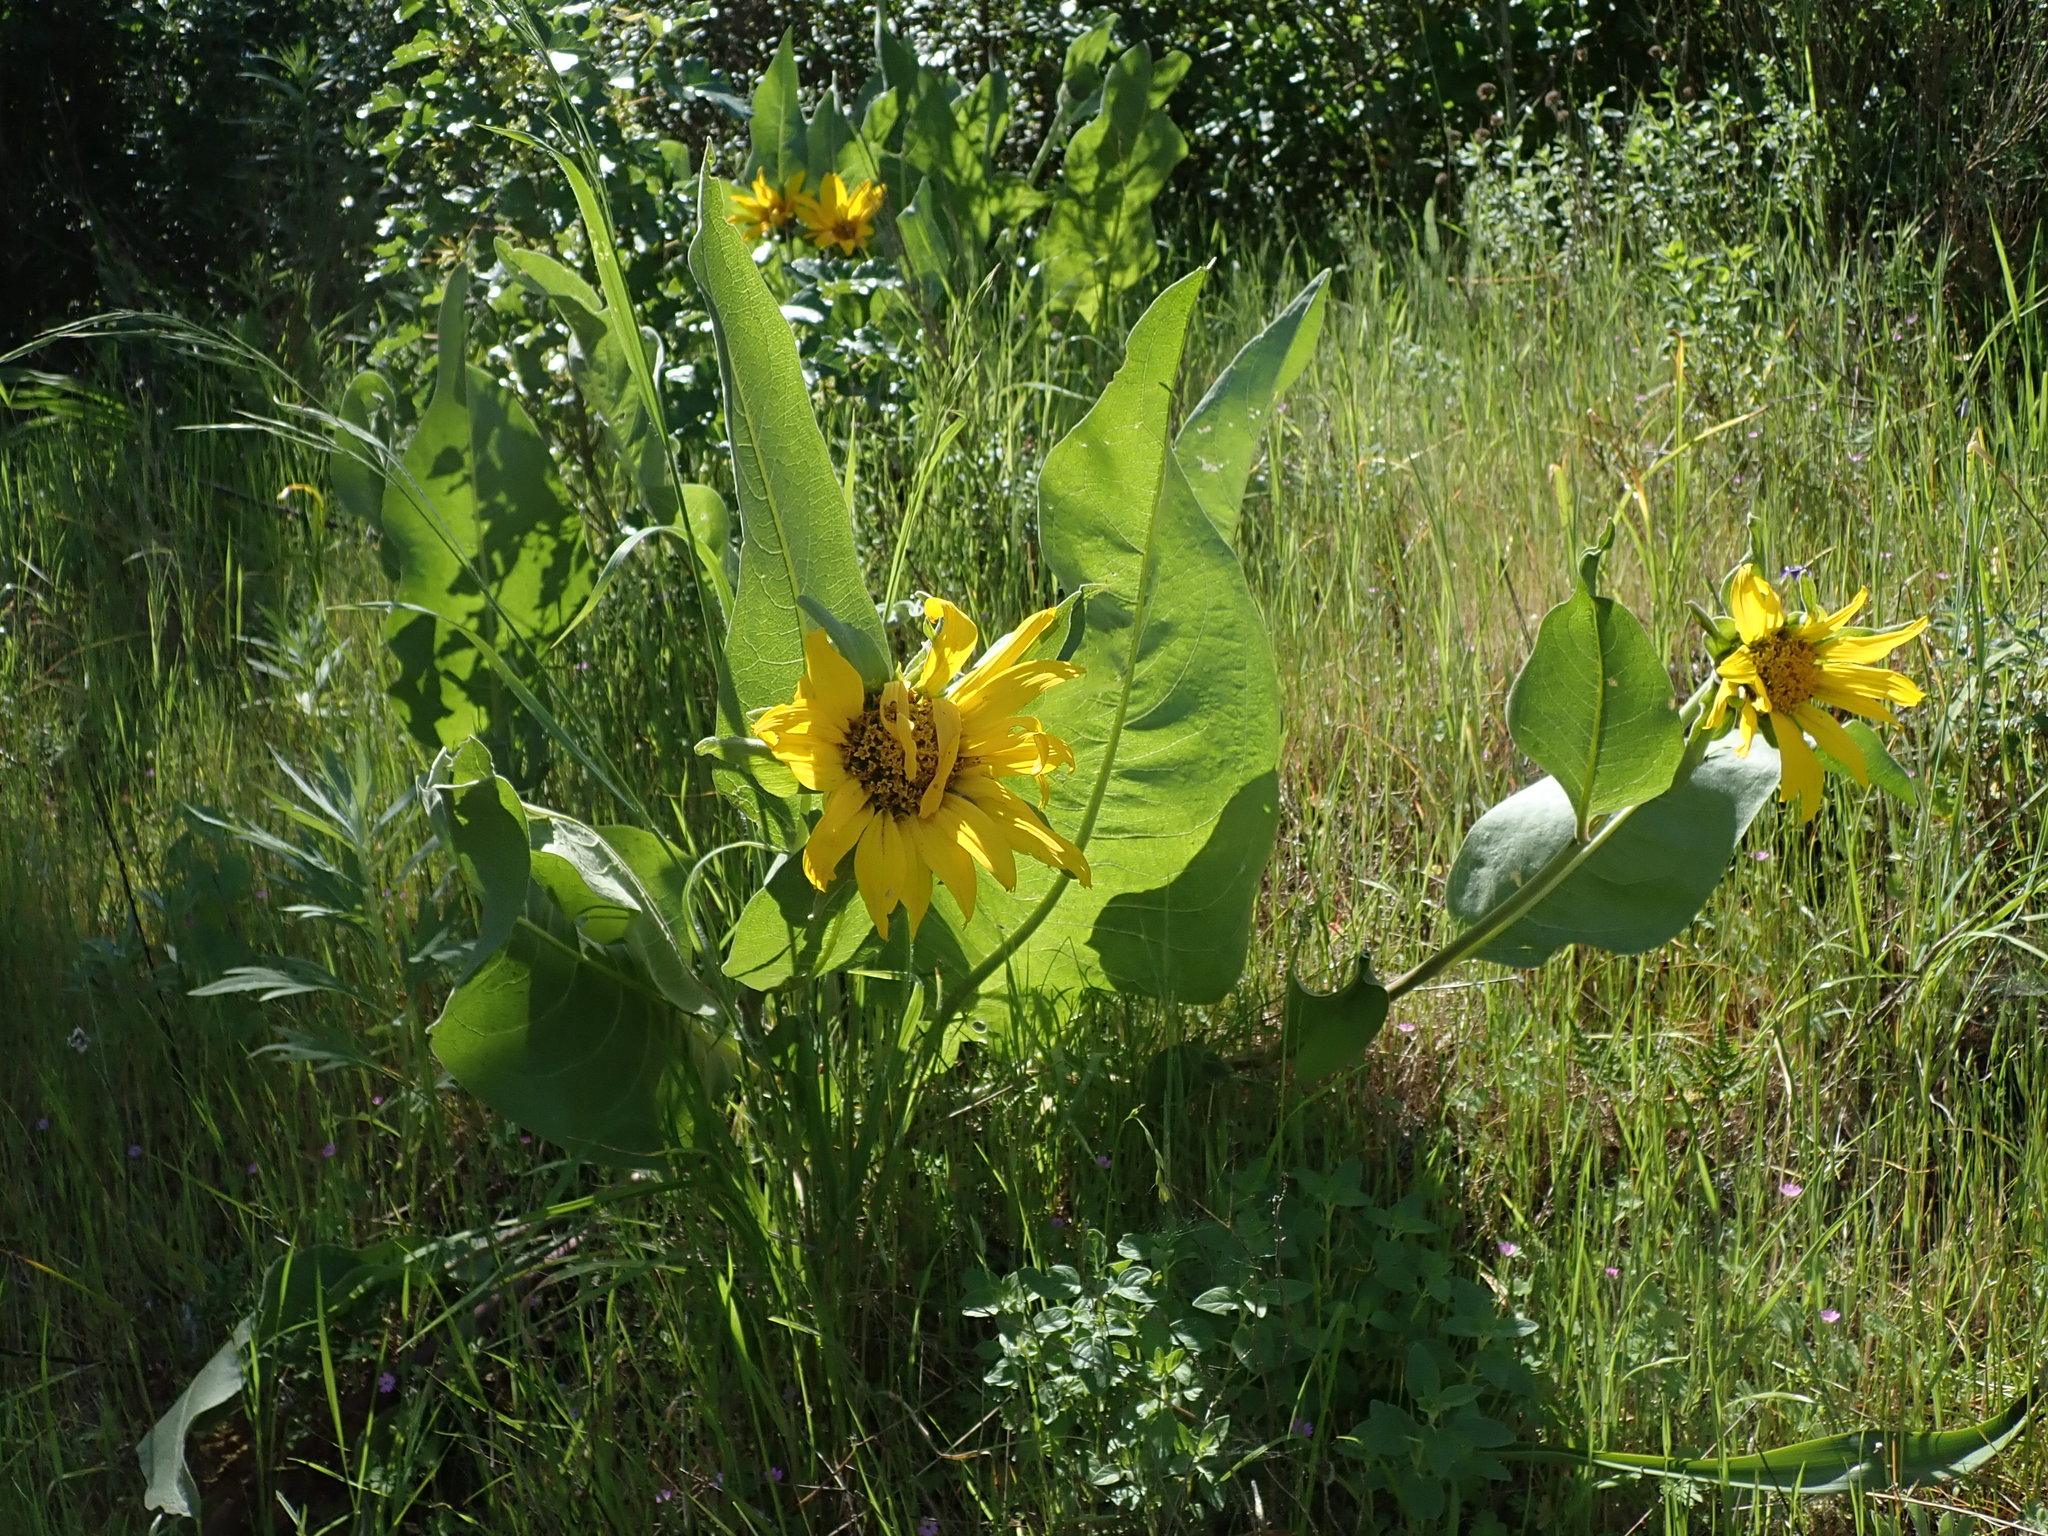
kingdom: Plantae
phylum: Tracheophyta
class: Magnoliopsida
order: Asterales
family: Asteraceae
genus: Wyethia
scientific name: Wyethia glabra
